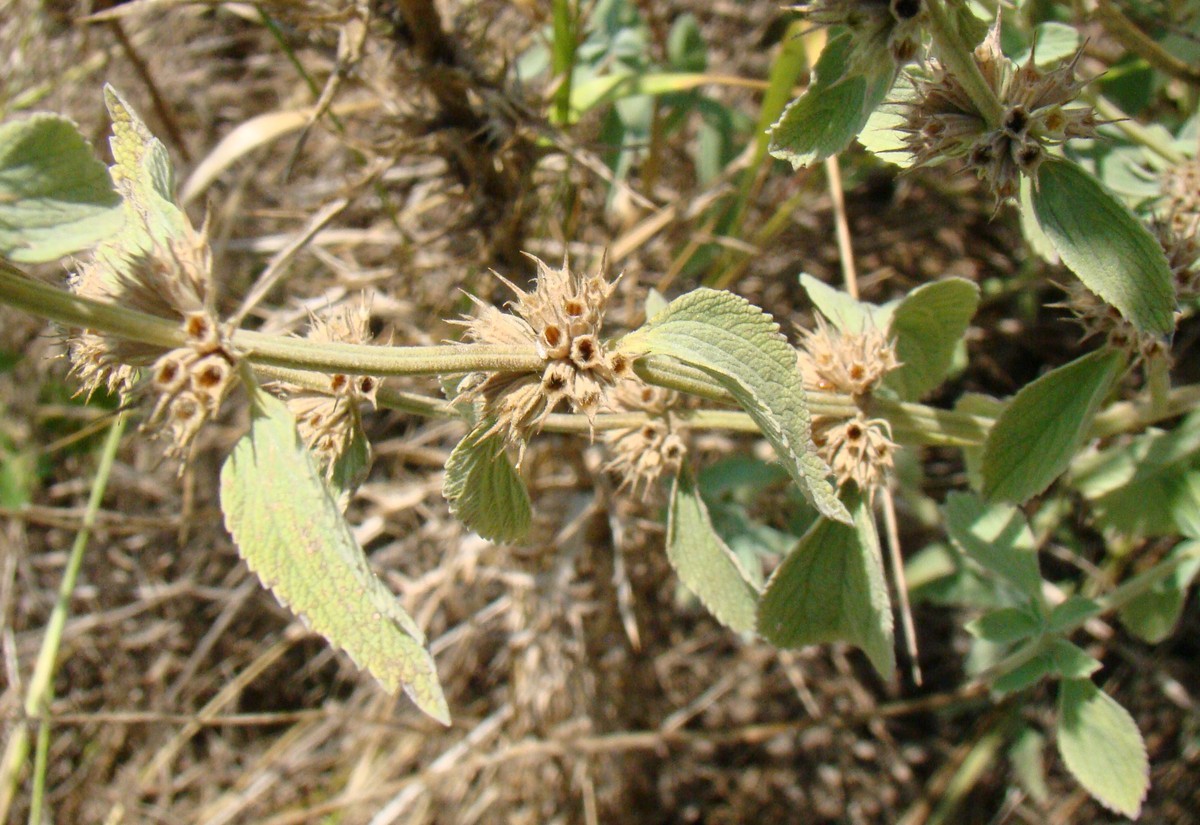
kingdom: Plantae
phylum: Tracheophyta
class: Magnoliopsida
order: Lamiales
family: Lamiaceae
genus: Marrubium
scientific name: Marrubium peregrinum
